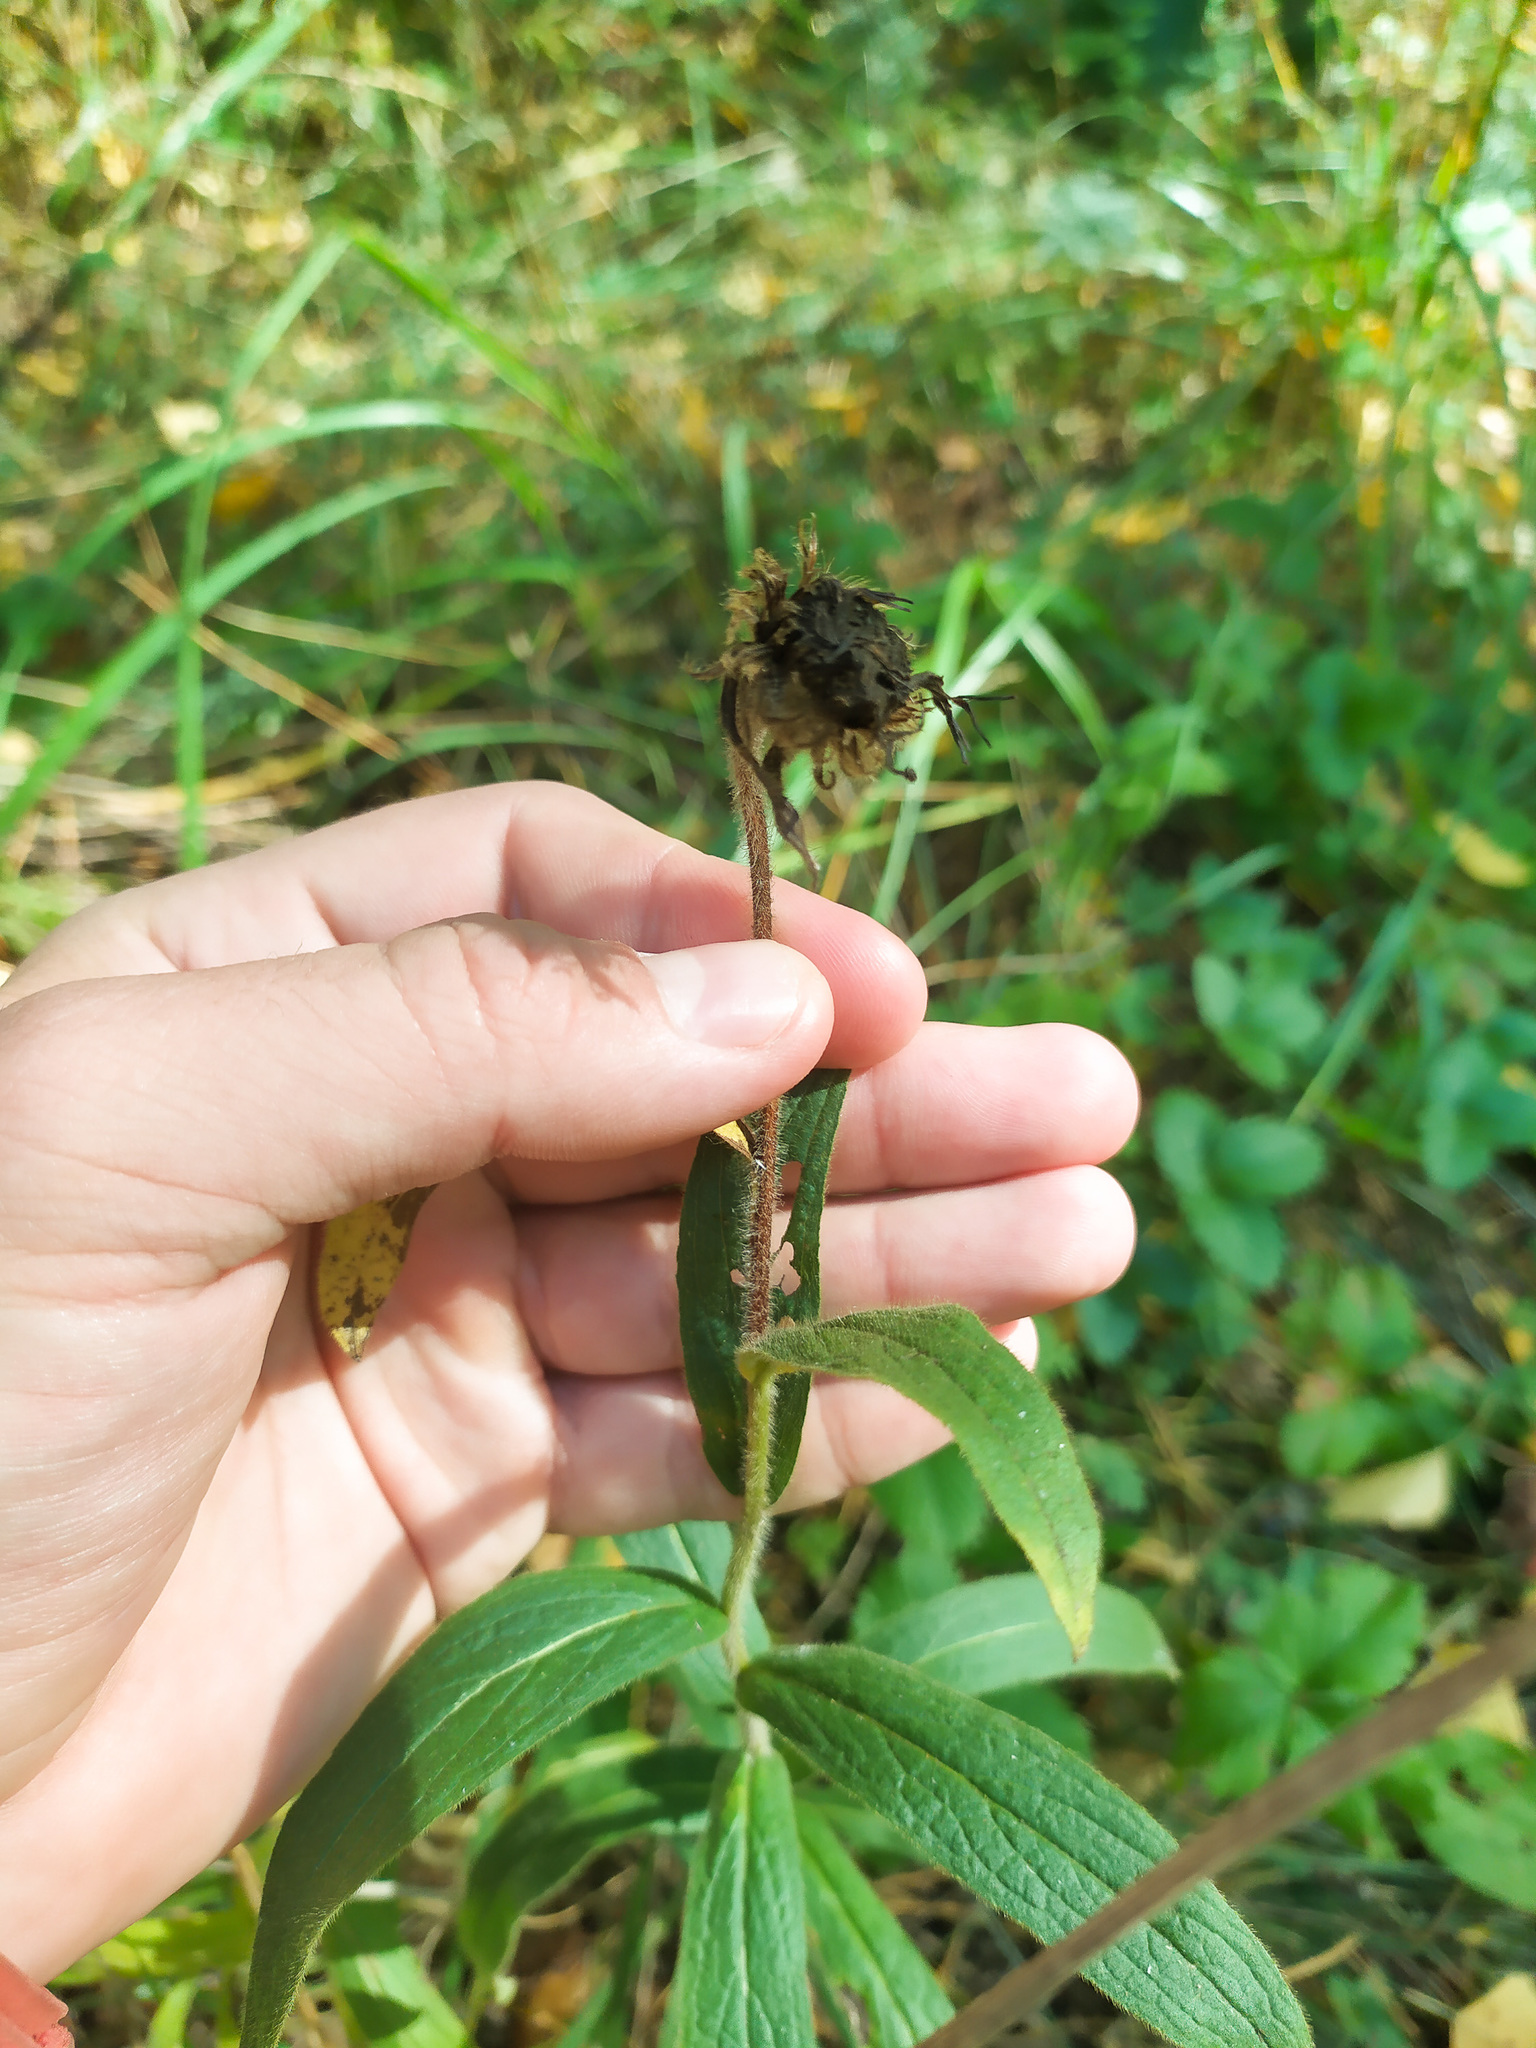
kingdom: Plantae
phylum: Tracheophyta
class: Magnoliopsida
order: Asterales
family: Asteraceae
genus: Pentanema
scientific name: Pentanema salicinum
